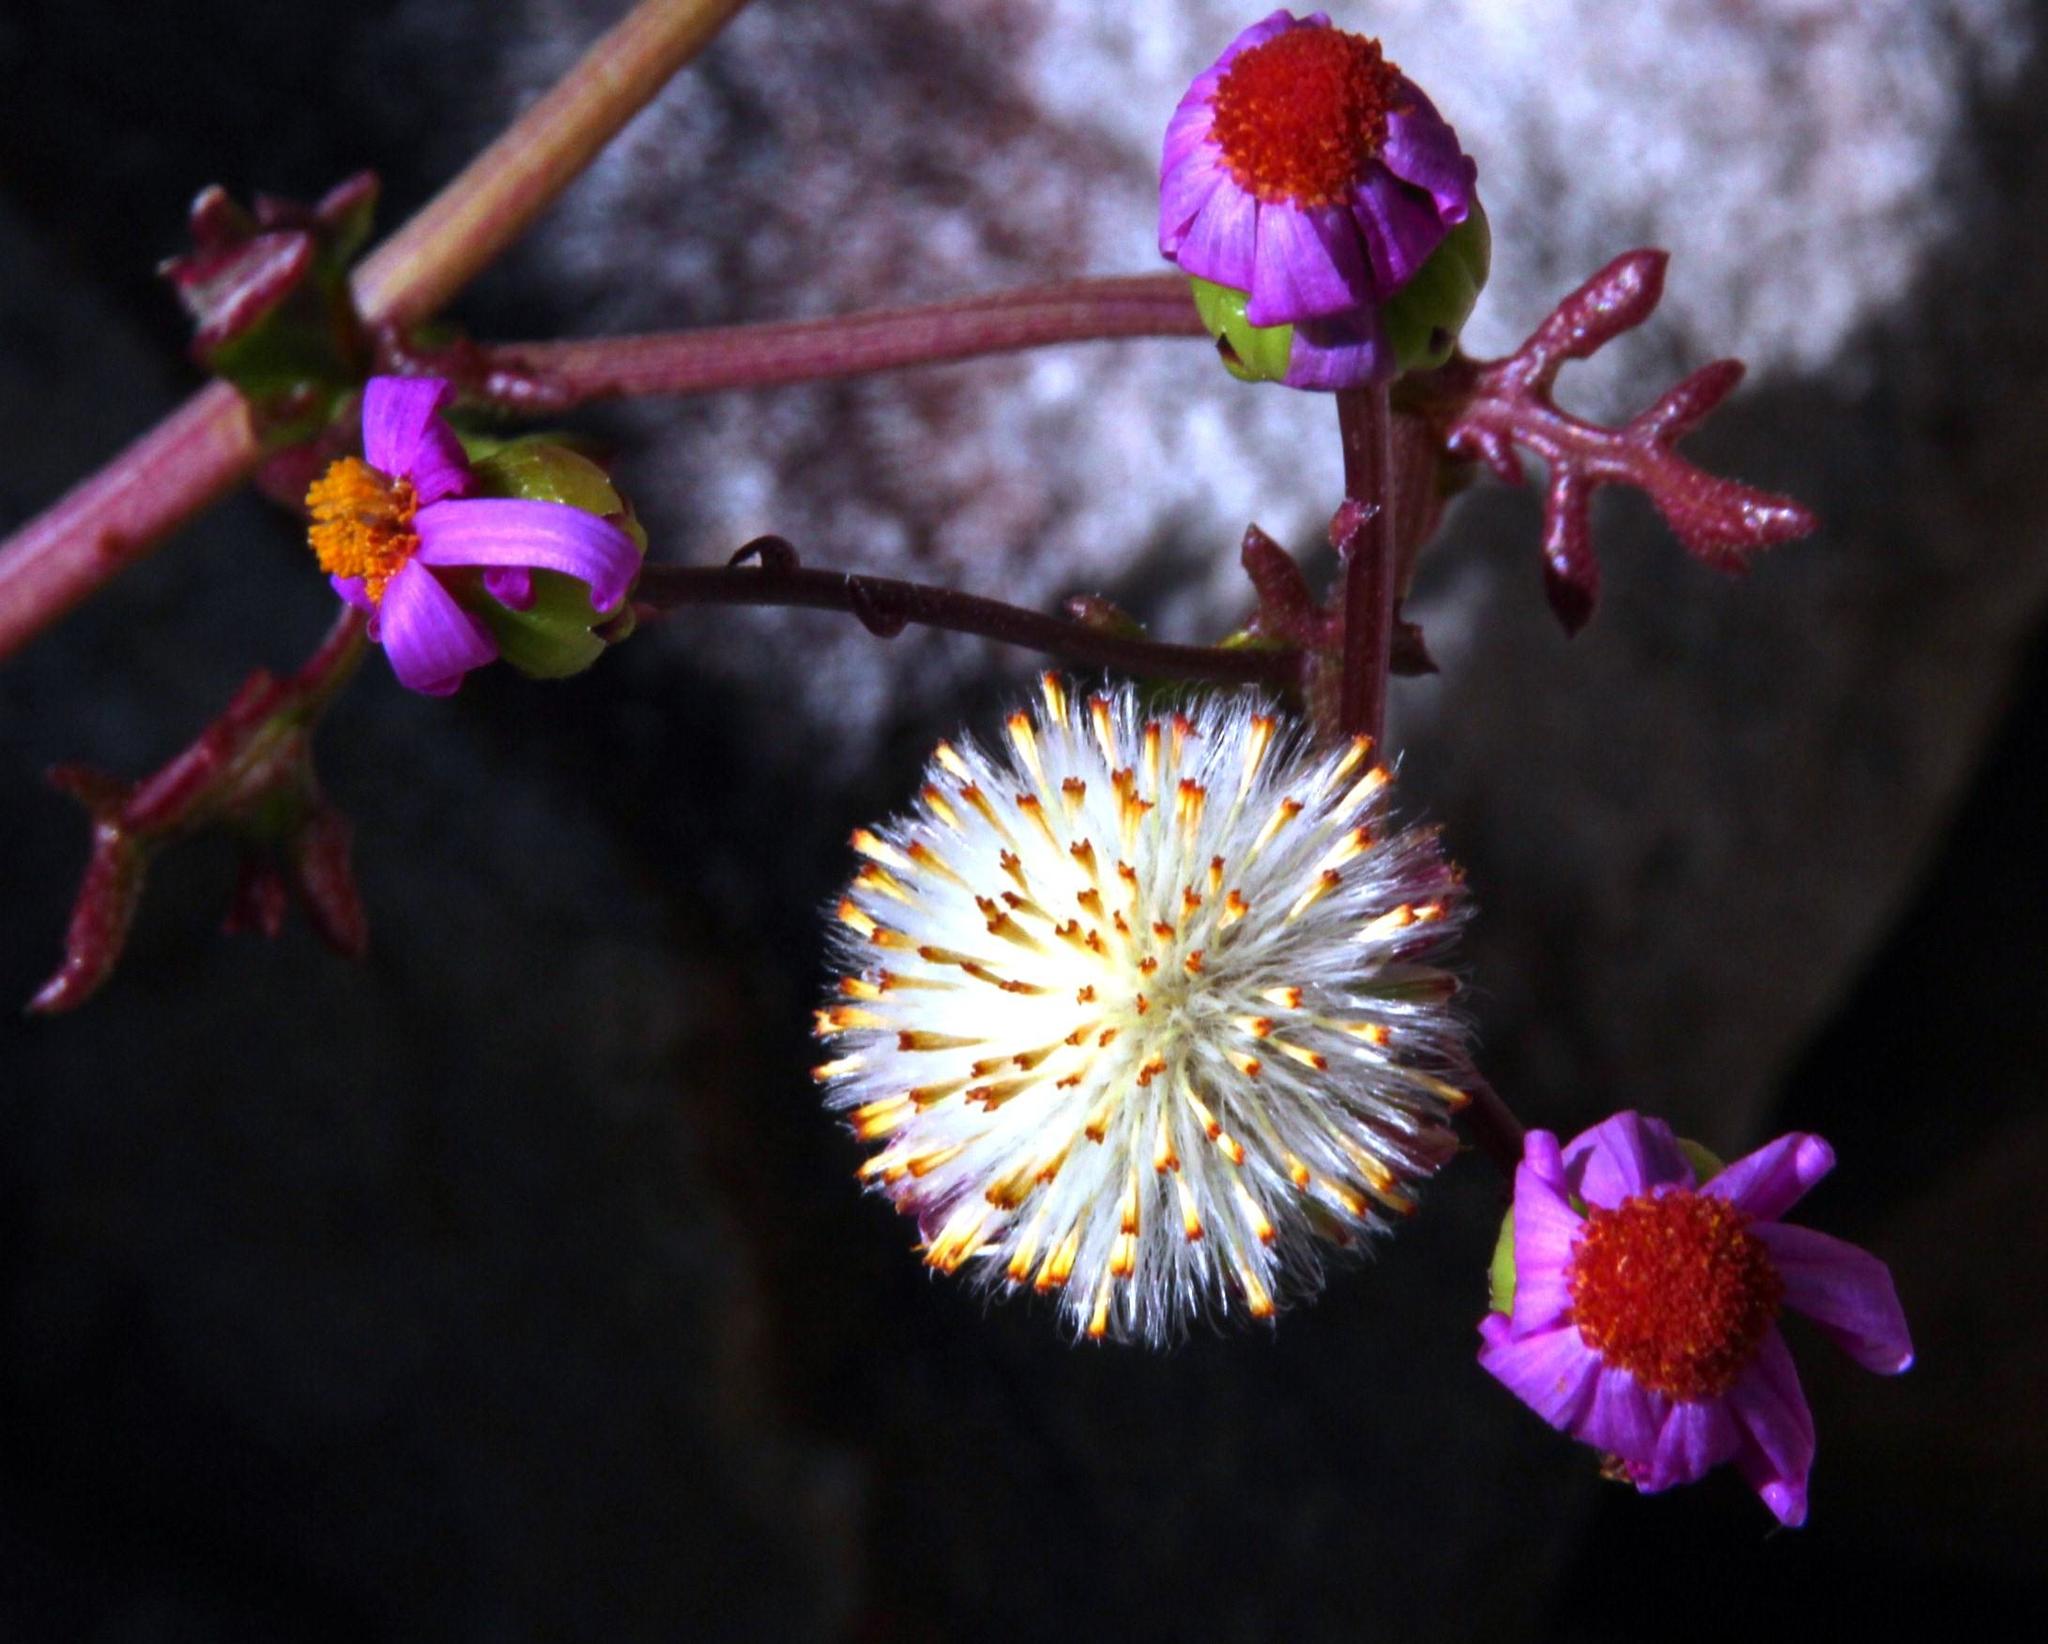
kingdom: Plantae
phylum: Tracheophyta
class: Magnoliopsida
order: Asterales
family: Asteraceae
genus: Senecio
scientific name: Senecio elegans
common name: Purple groundsel
